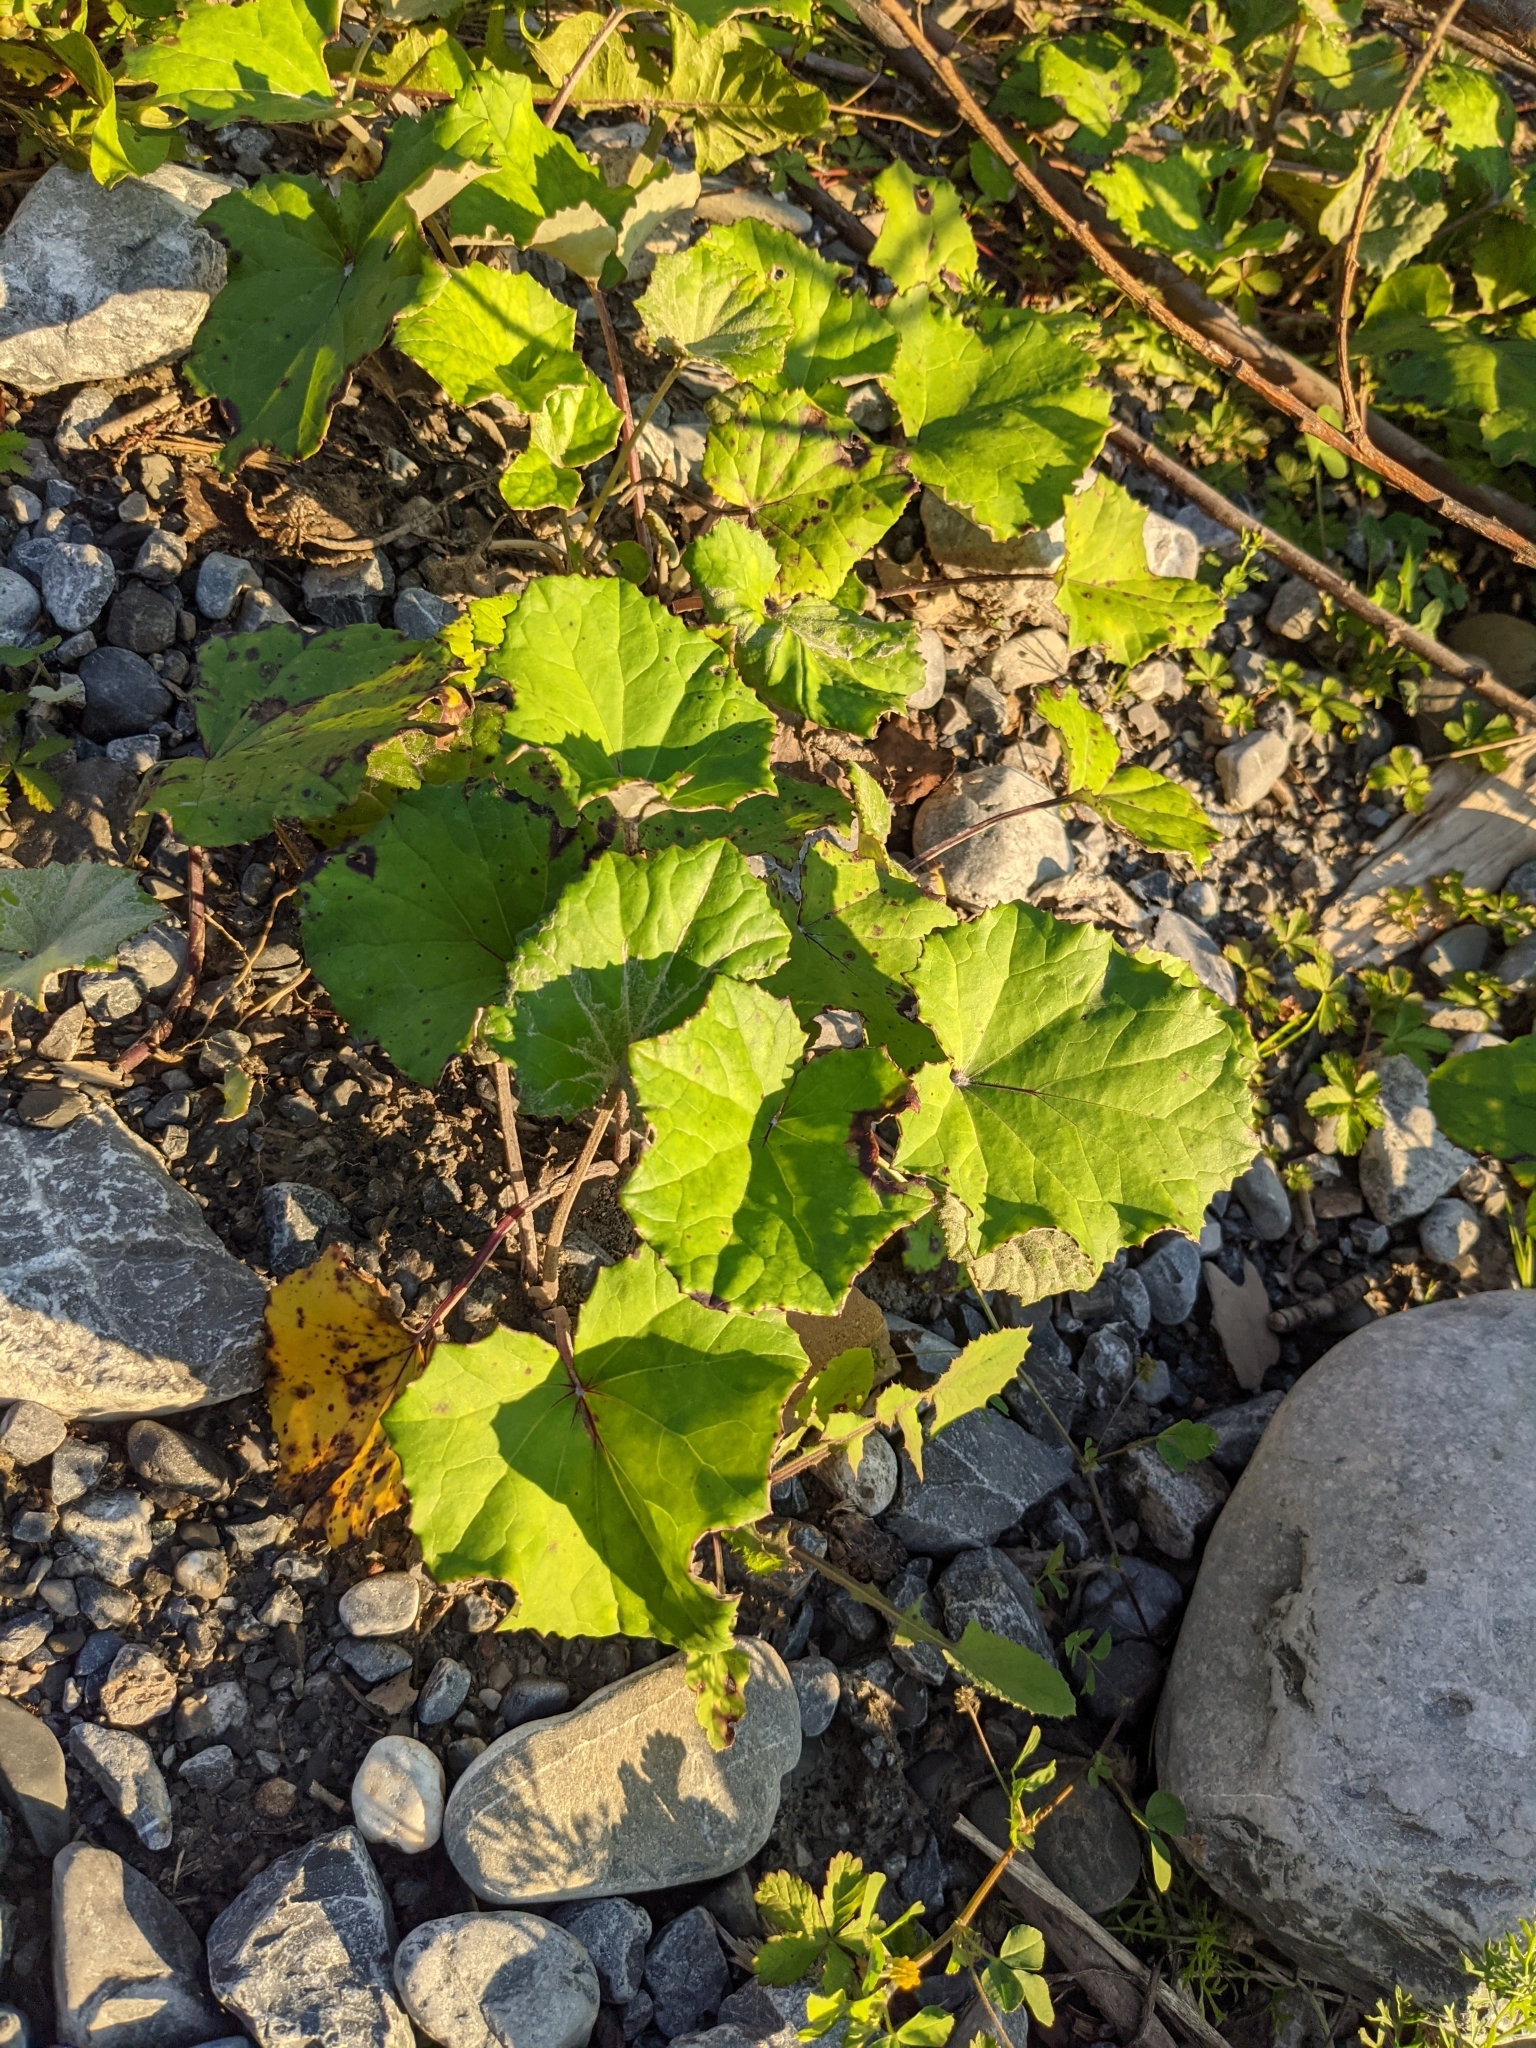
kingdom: Plantae
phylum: Tracheophyta
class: Magnoliopsida
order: Asterales
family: Asteraceae
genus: Tussilago
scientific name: Tussilago farfara
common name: Coltsfoot
